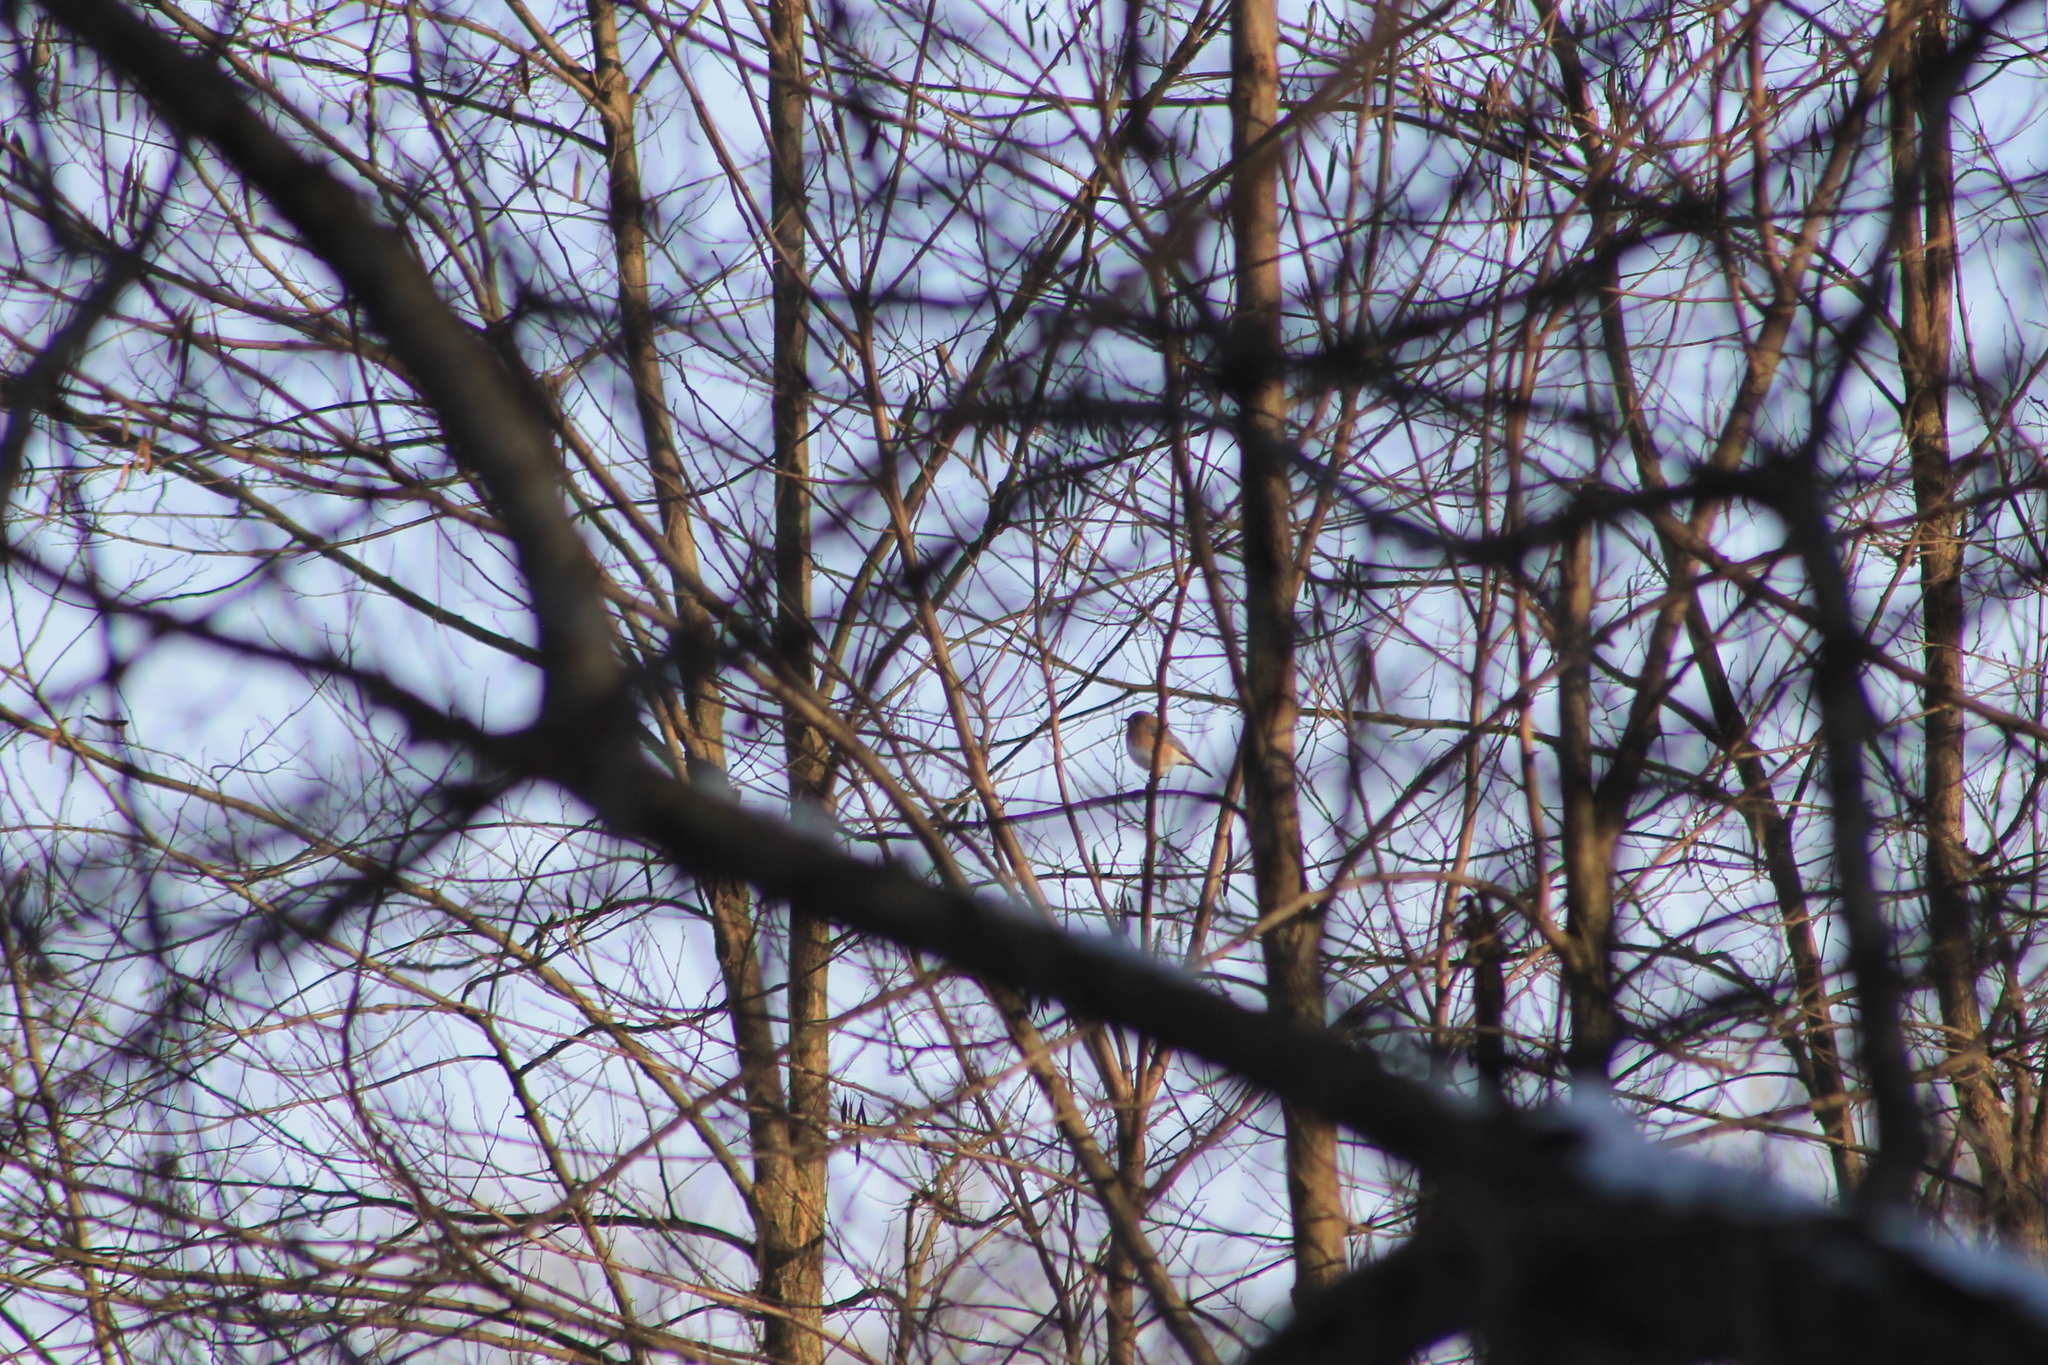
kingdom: Animalia
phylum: Chordata
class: Aves
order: Passeriformes
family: Turdidae
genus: Sialia
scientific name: Sialia sialis
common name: Eastern bluebird
